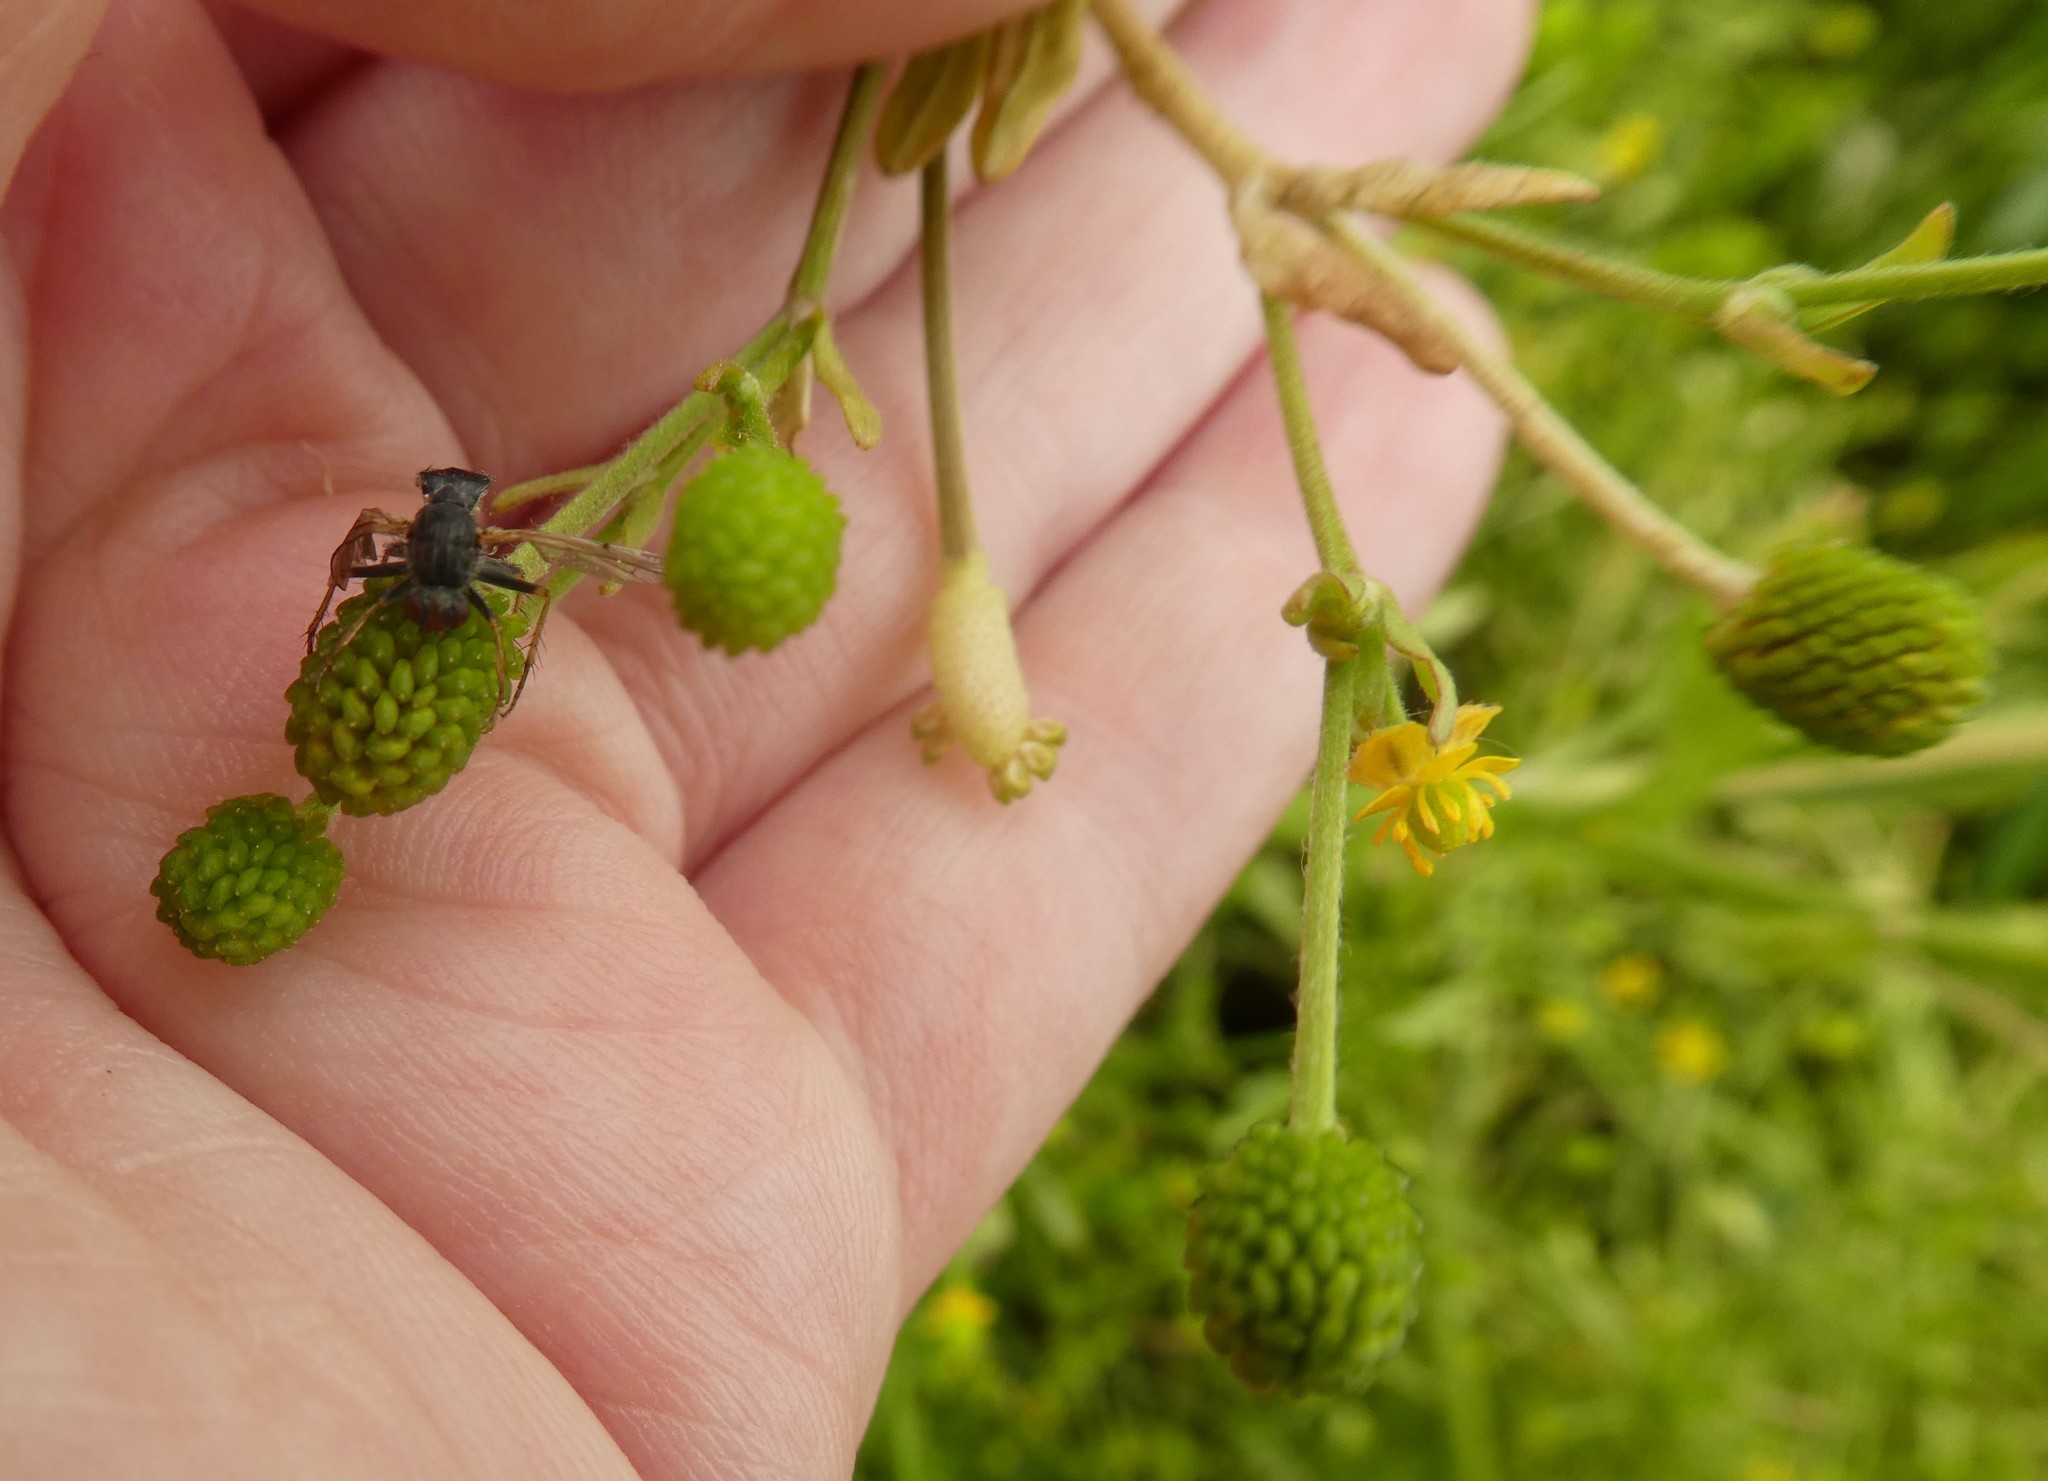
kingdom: Plantae
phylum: Tracheophyta
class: Magnoliopsida
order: Ranunculales
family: Ranunculaceae
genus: Ranunculus
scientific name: Ranunculus sceleratus
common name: Celery-leaved buttercup
